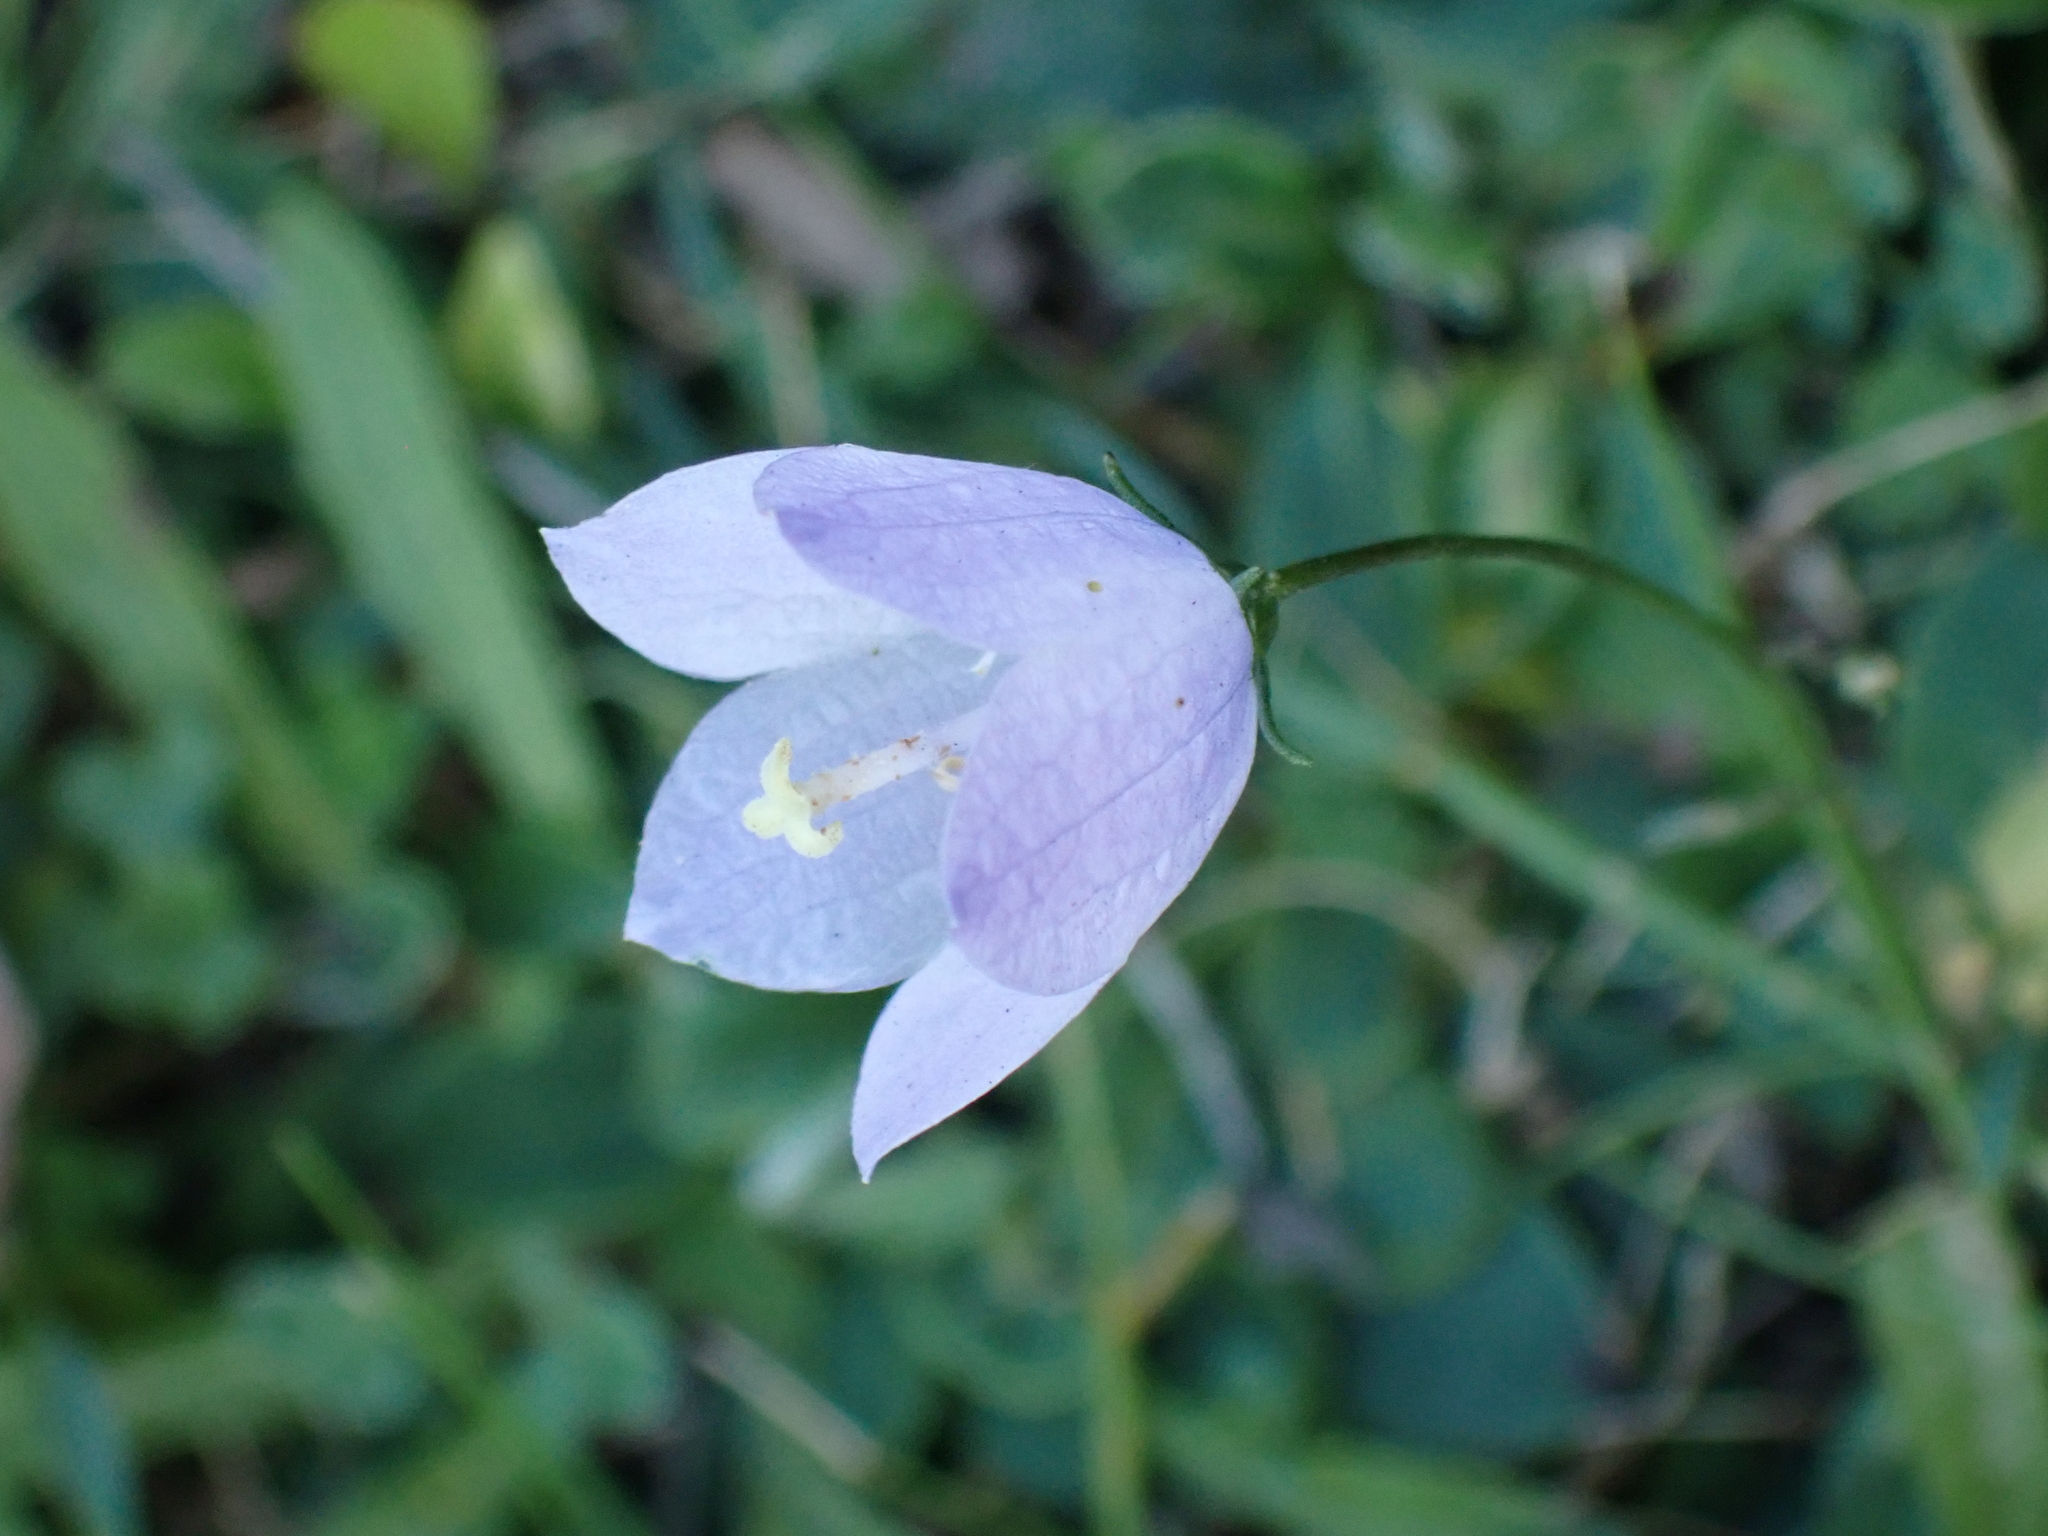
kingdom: Plantae
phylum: Tracheophyta
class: Magnoliopsida
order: Asterales
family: Campanulaceae
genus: Campanula
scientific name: Campanula rotundifolia
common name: Harebell
